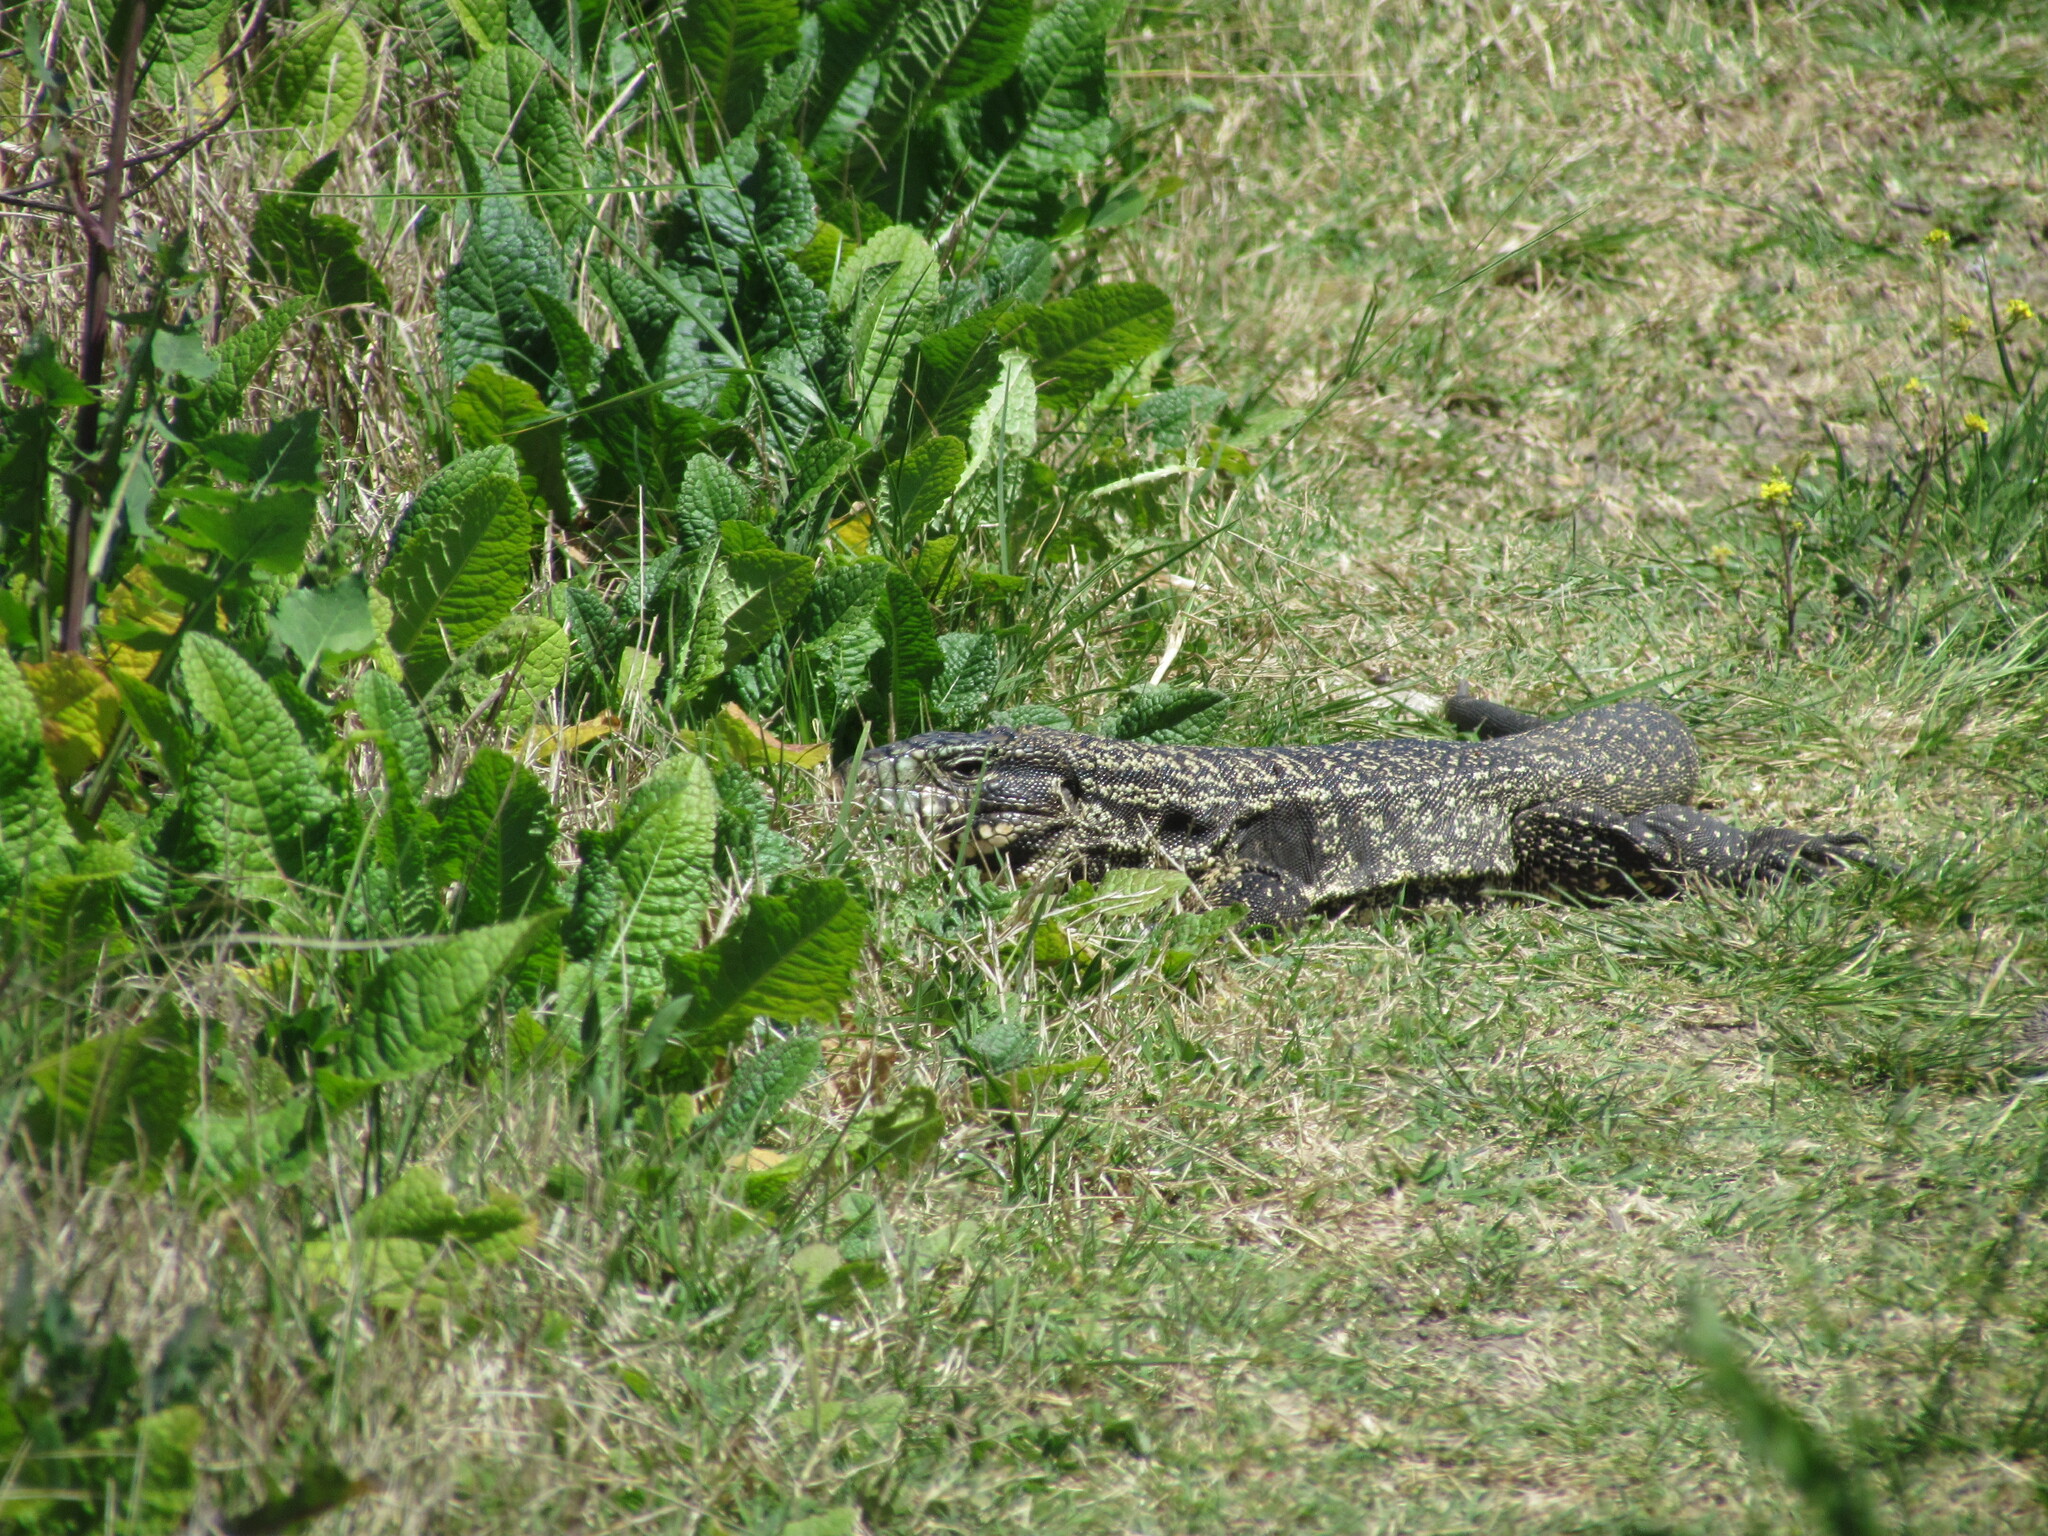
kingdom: Animalia
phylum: Chordata
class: Squamata
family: Teiidae
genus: Salvator
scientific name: Salvator merianae
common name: Argentine black and white tegu
